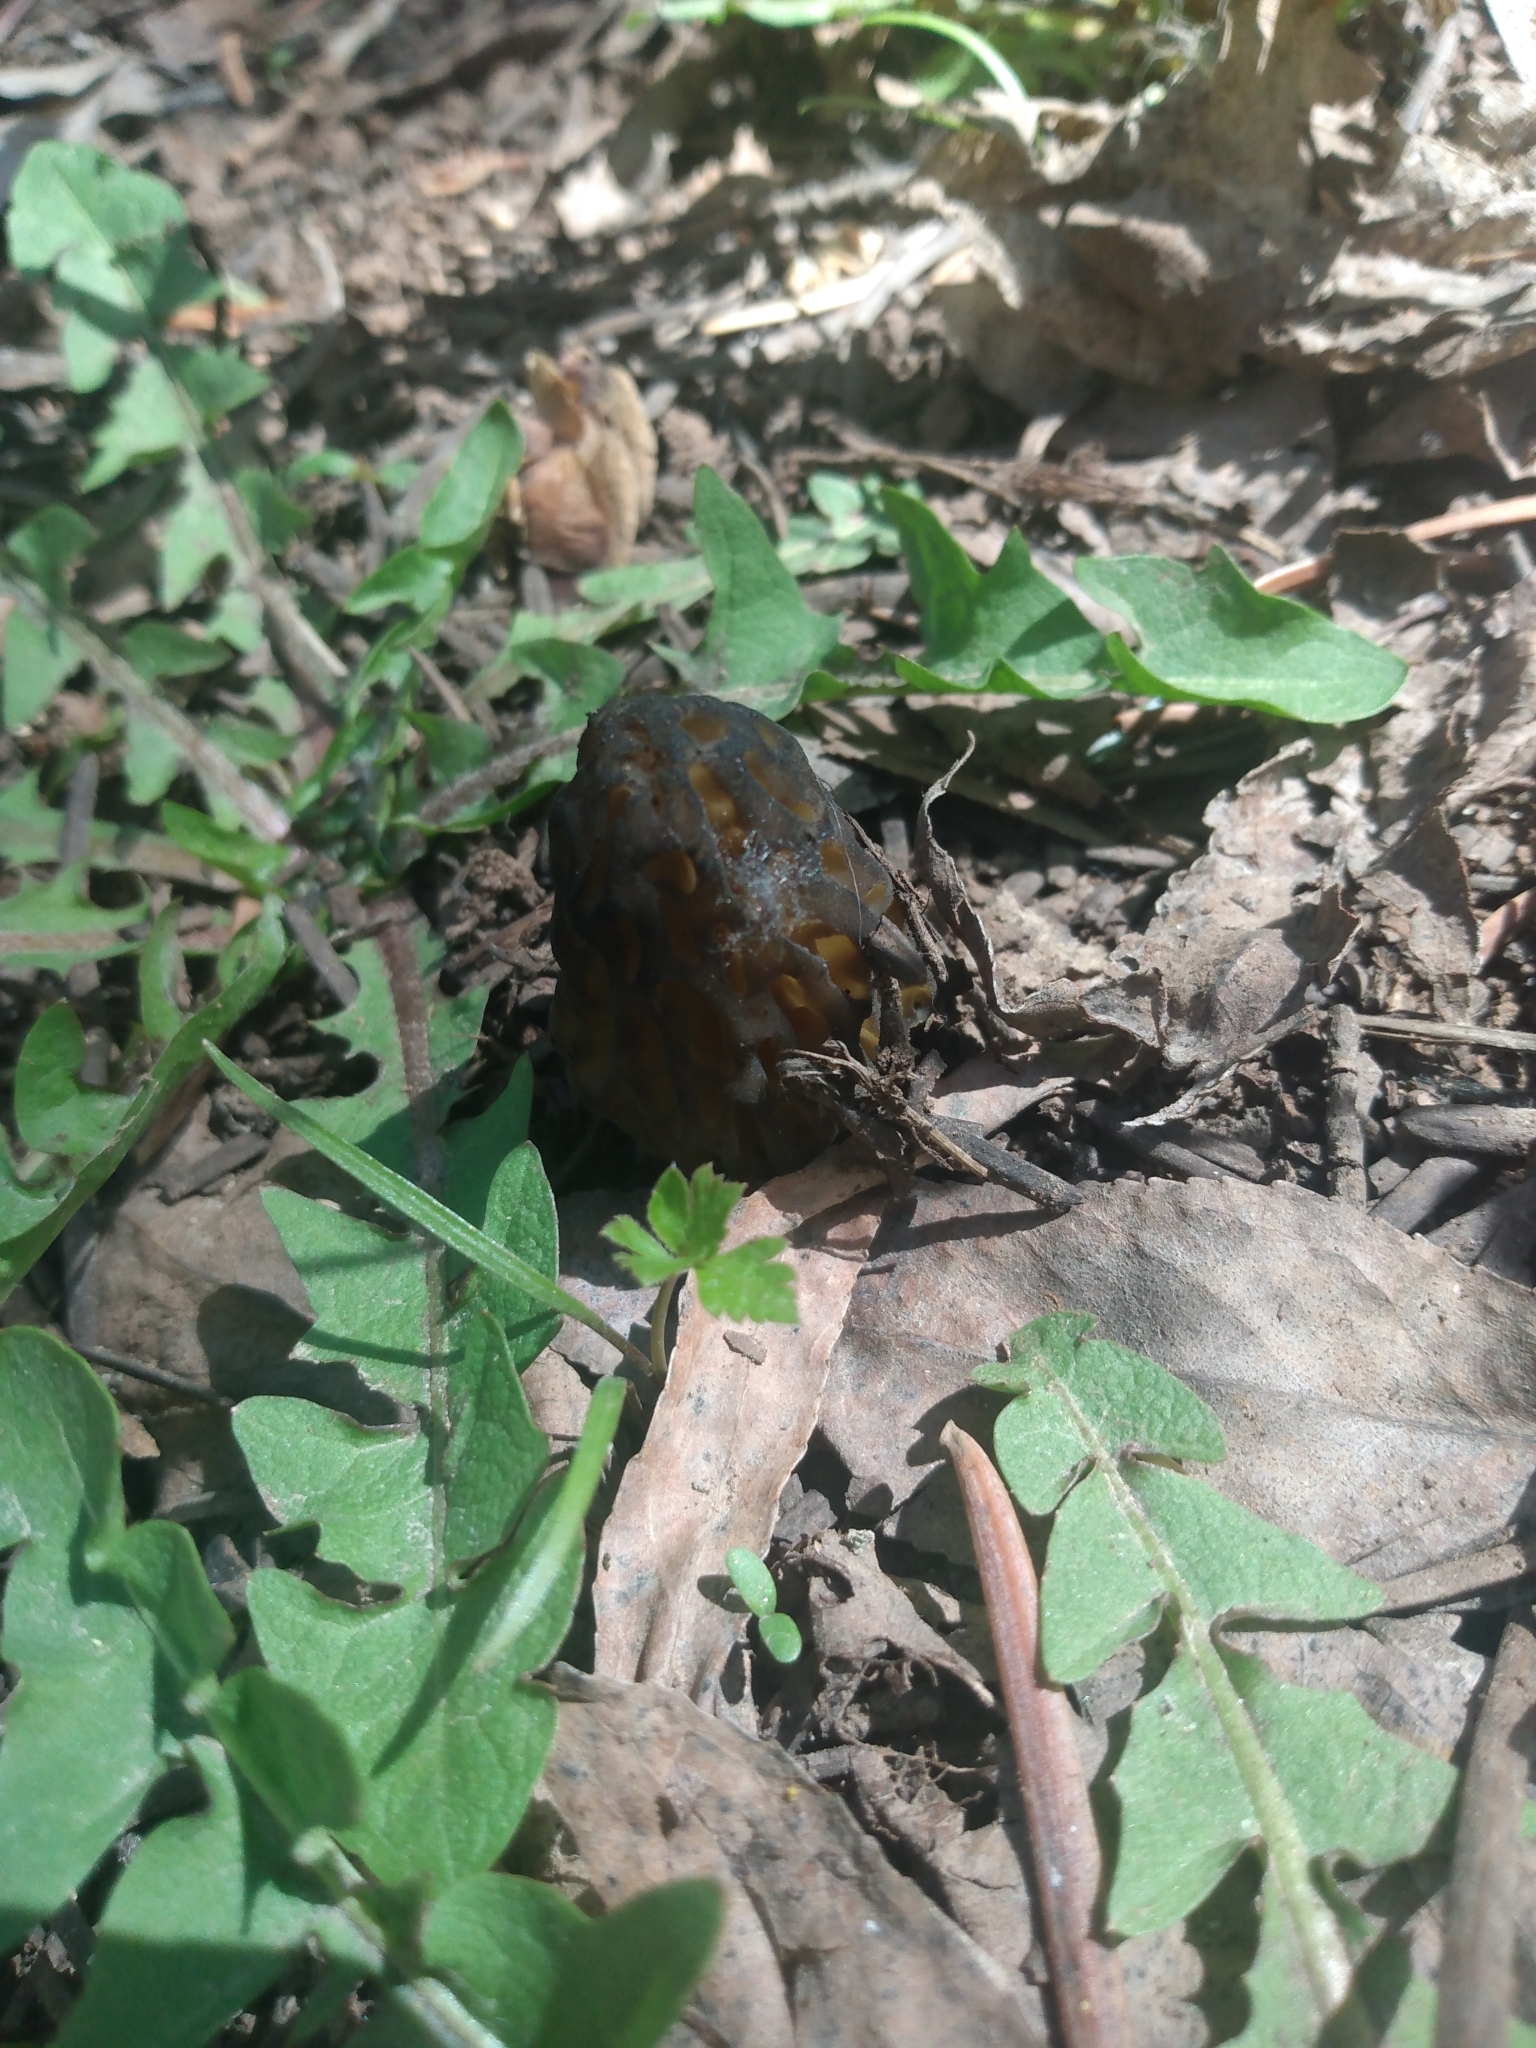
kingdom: Fungi
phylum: Ascomycota
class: Pezizomycetes
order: Pezizales
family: Morchellaceae
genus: Morchella
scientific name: Morchella snyderi
